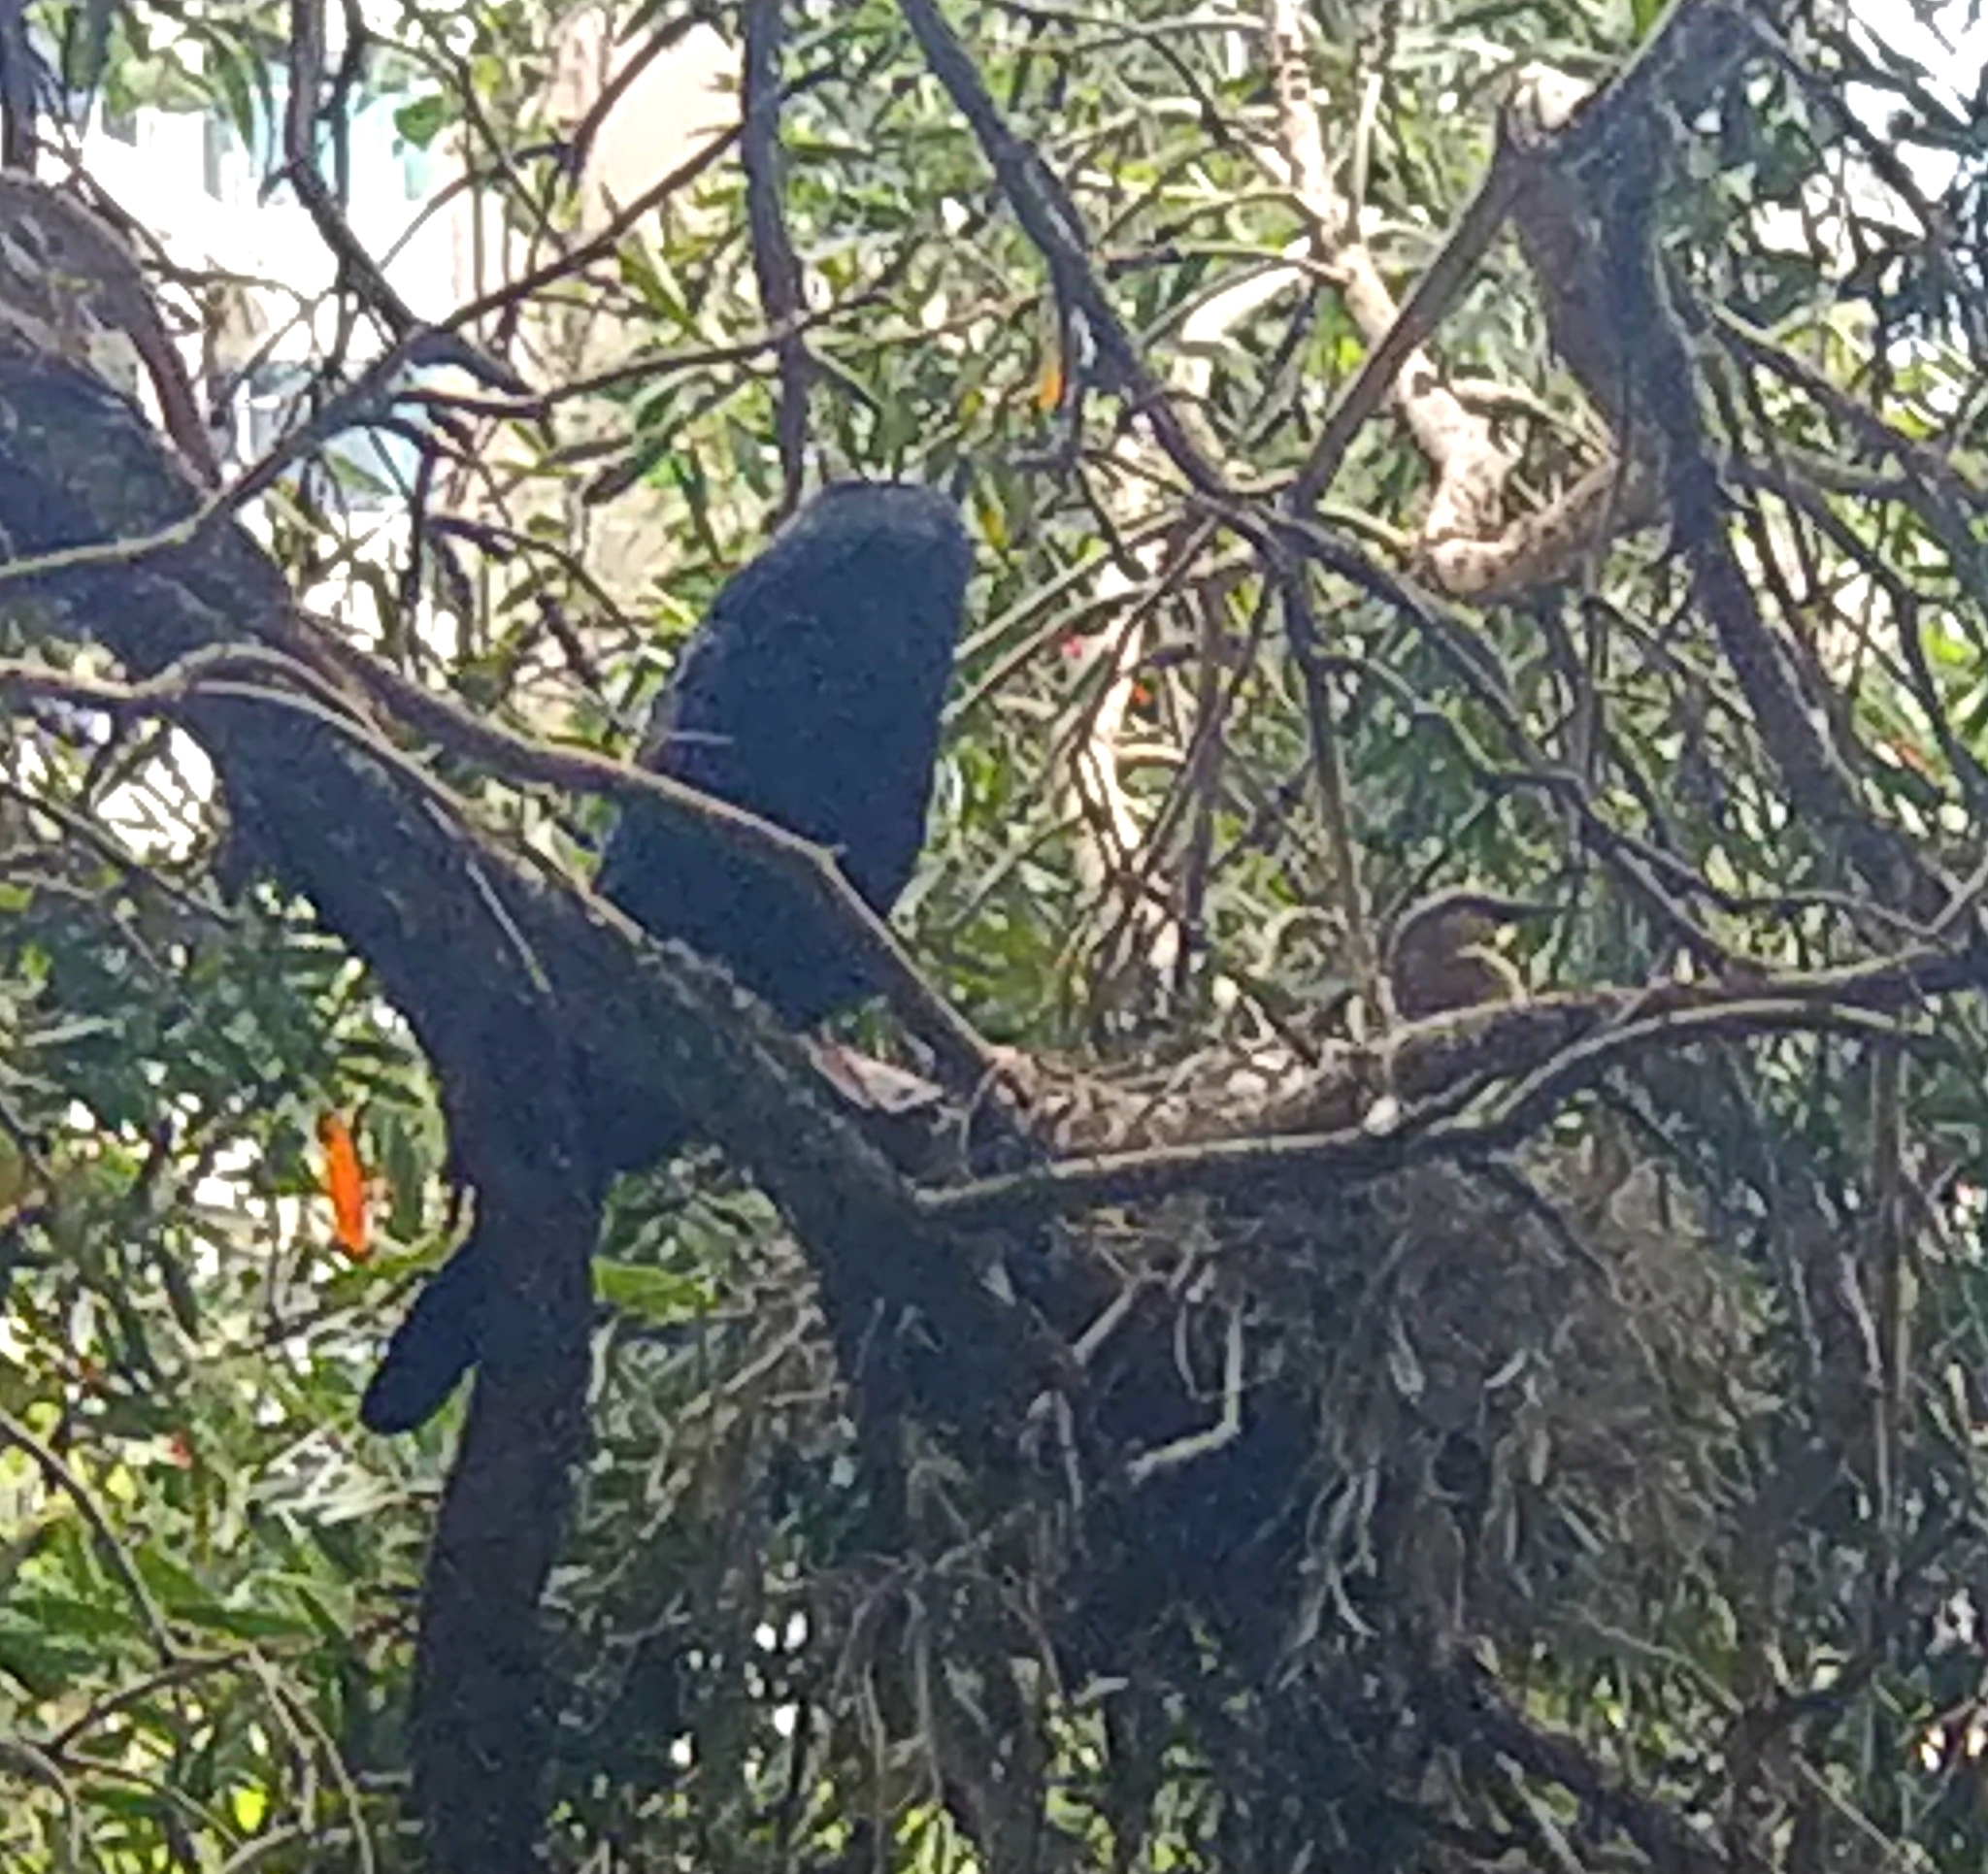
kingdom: Animalia
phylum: Chordata
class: Aves
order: Suliformes
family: Anhingidae
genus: Anhinga
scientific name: Anhinga novaehollandiae
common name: Australasian darter
